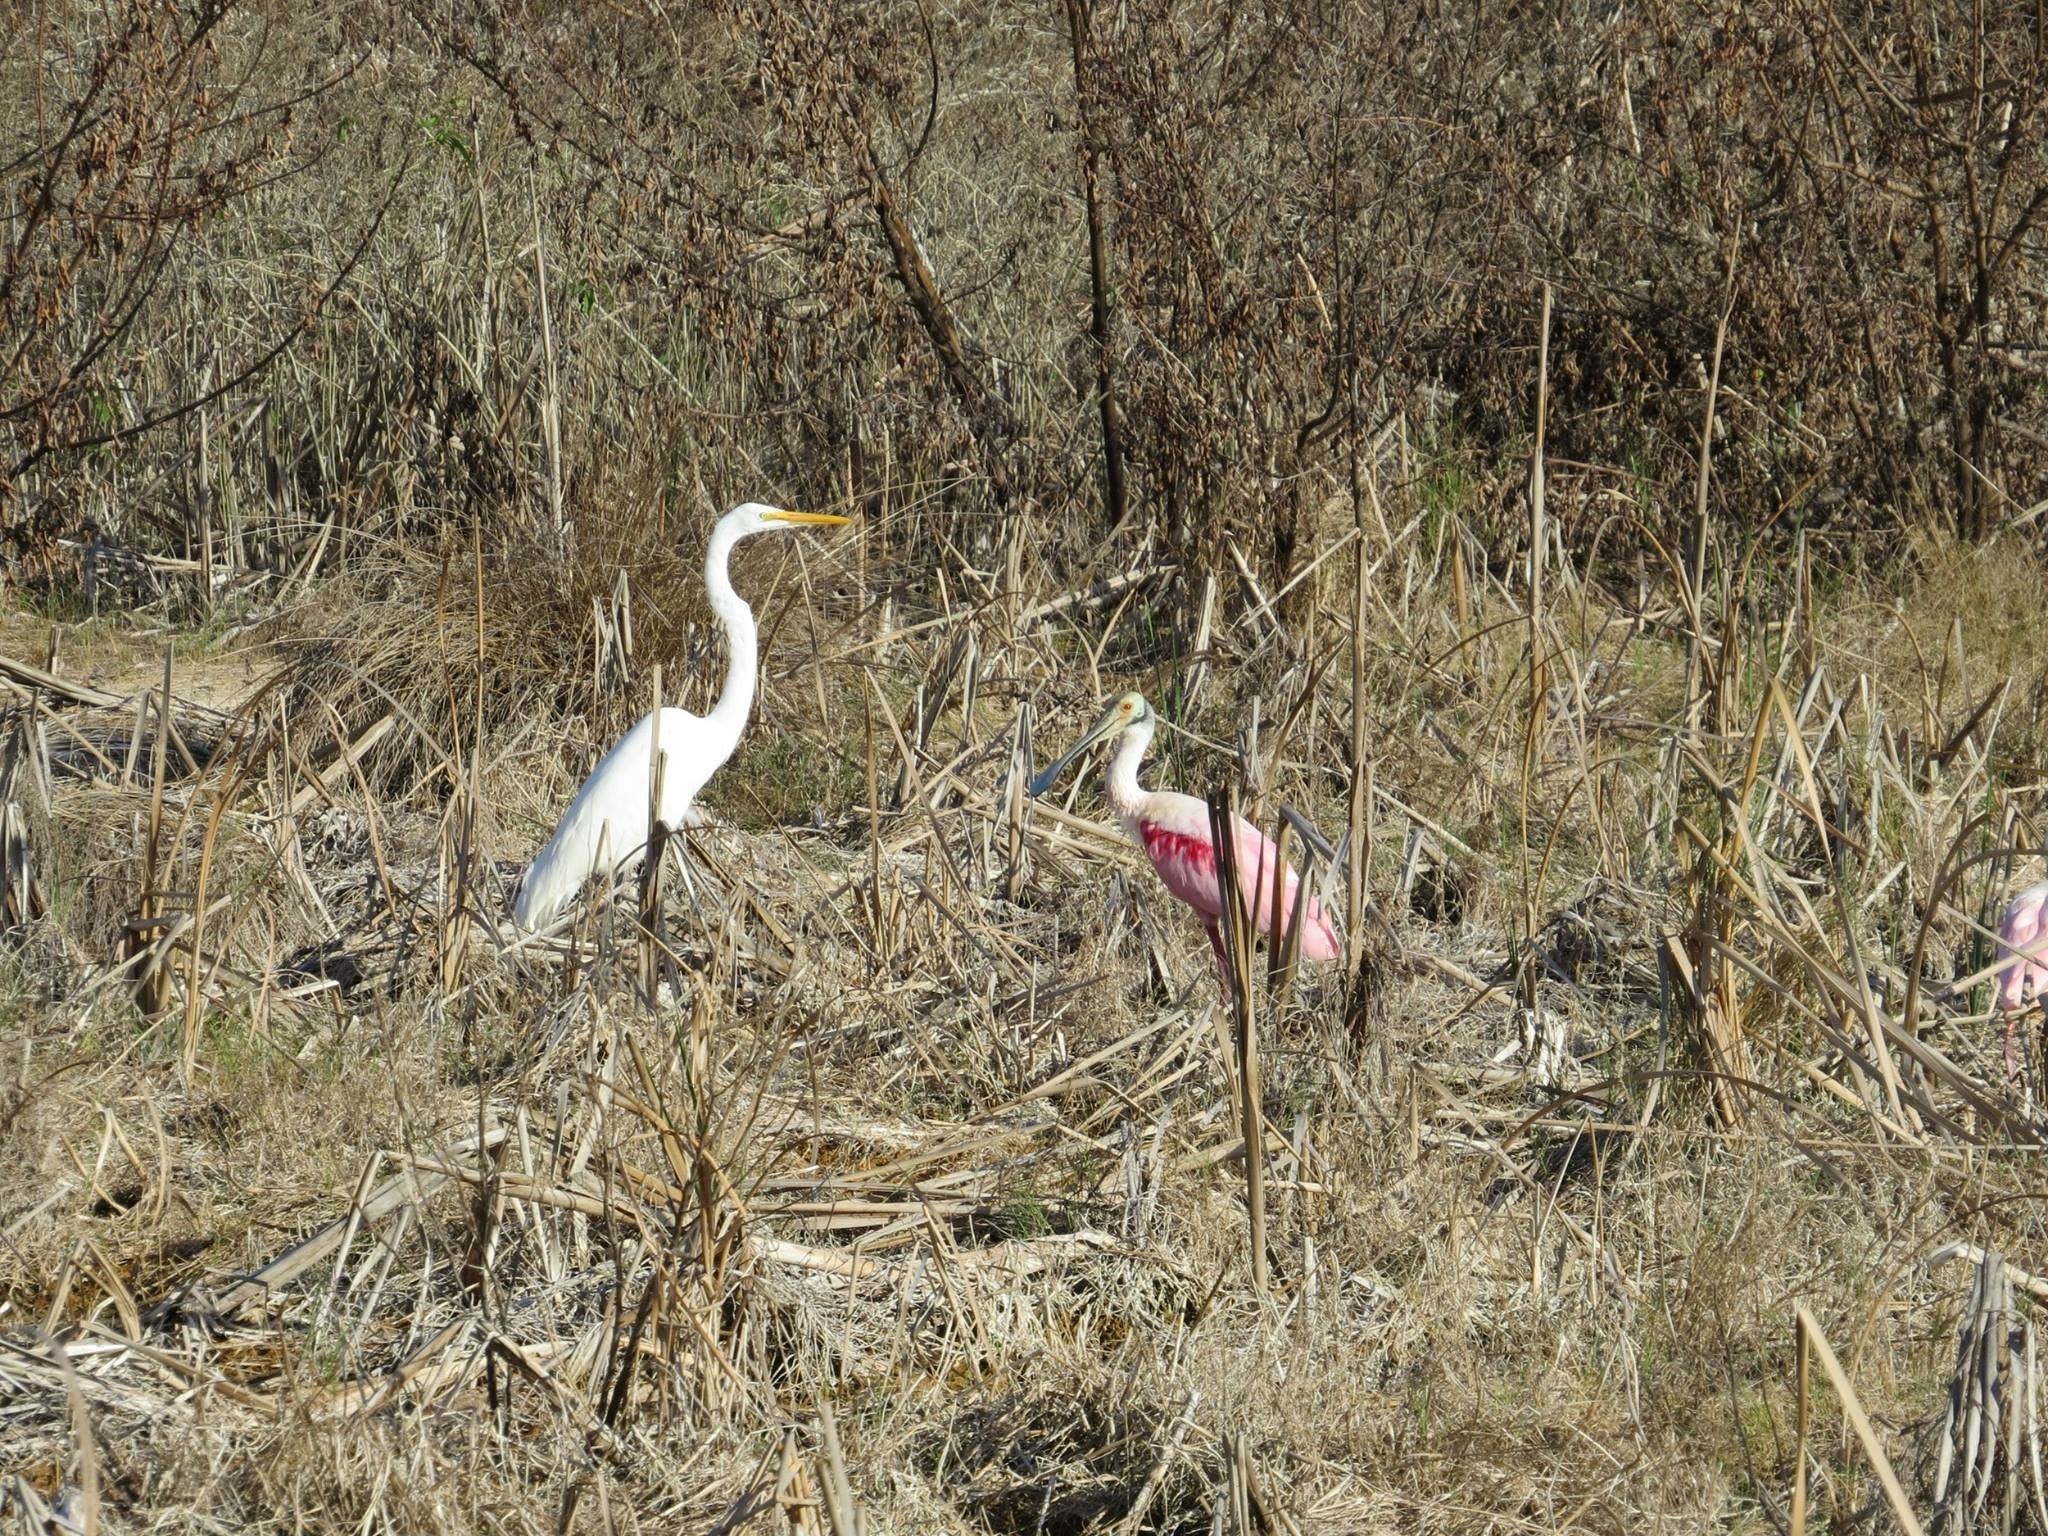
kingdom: Animalia
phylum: Chordata
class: Aves
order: Pelecaniformes
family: Threskiornithidae
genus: Platalea
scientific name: Platalea ajaja
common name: Roseate spoonbill
